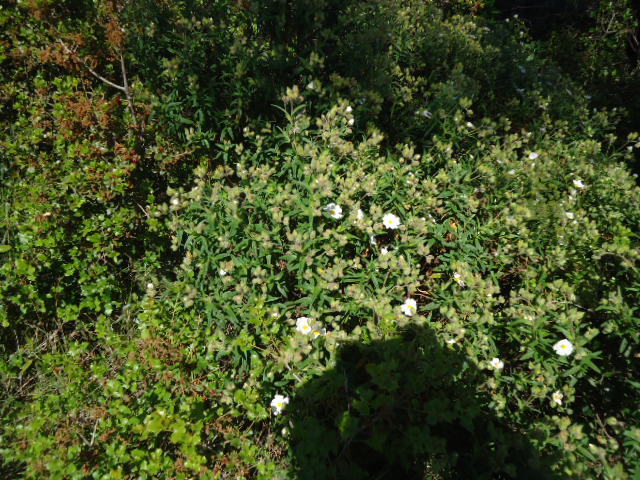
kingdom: Plantae
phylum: Tracheophyta
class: Magnoliopsida
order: Malvales
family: Cistaceae
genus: Cistus
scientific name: Cistus salviifolius
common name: Salvia cistus
